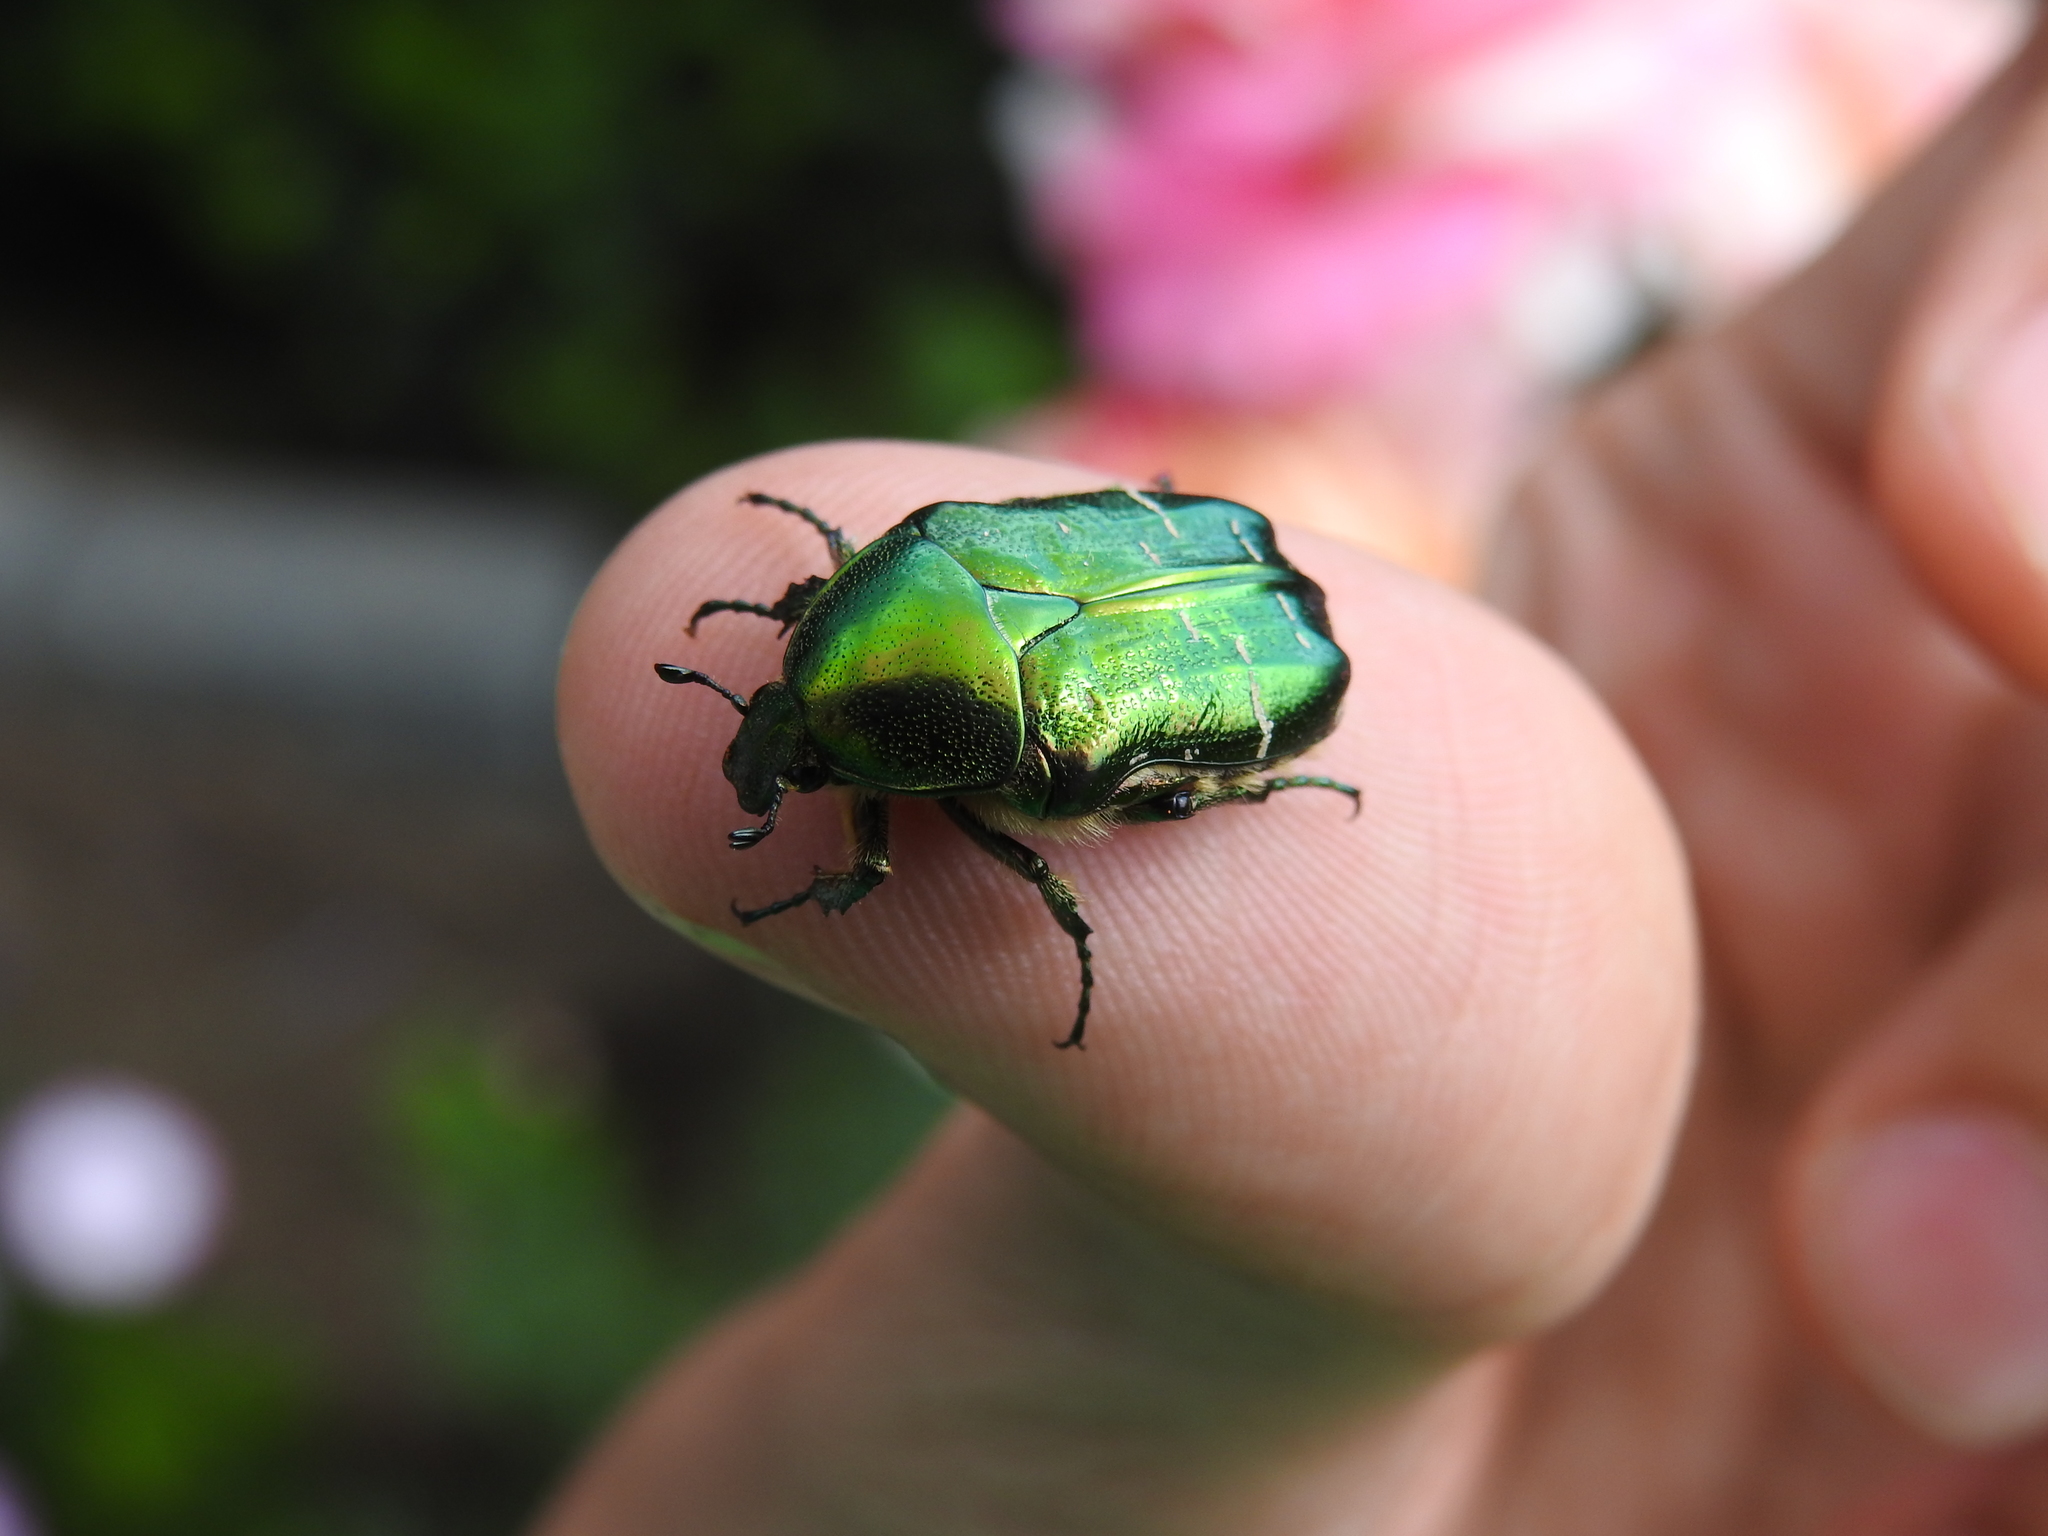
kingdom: Animalia
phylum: Arthropoda
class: Insecta
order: Coleoptera
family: Scarabaeidae
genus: Cetonia
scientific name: Cetonia aurata
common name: Rose chafer
